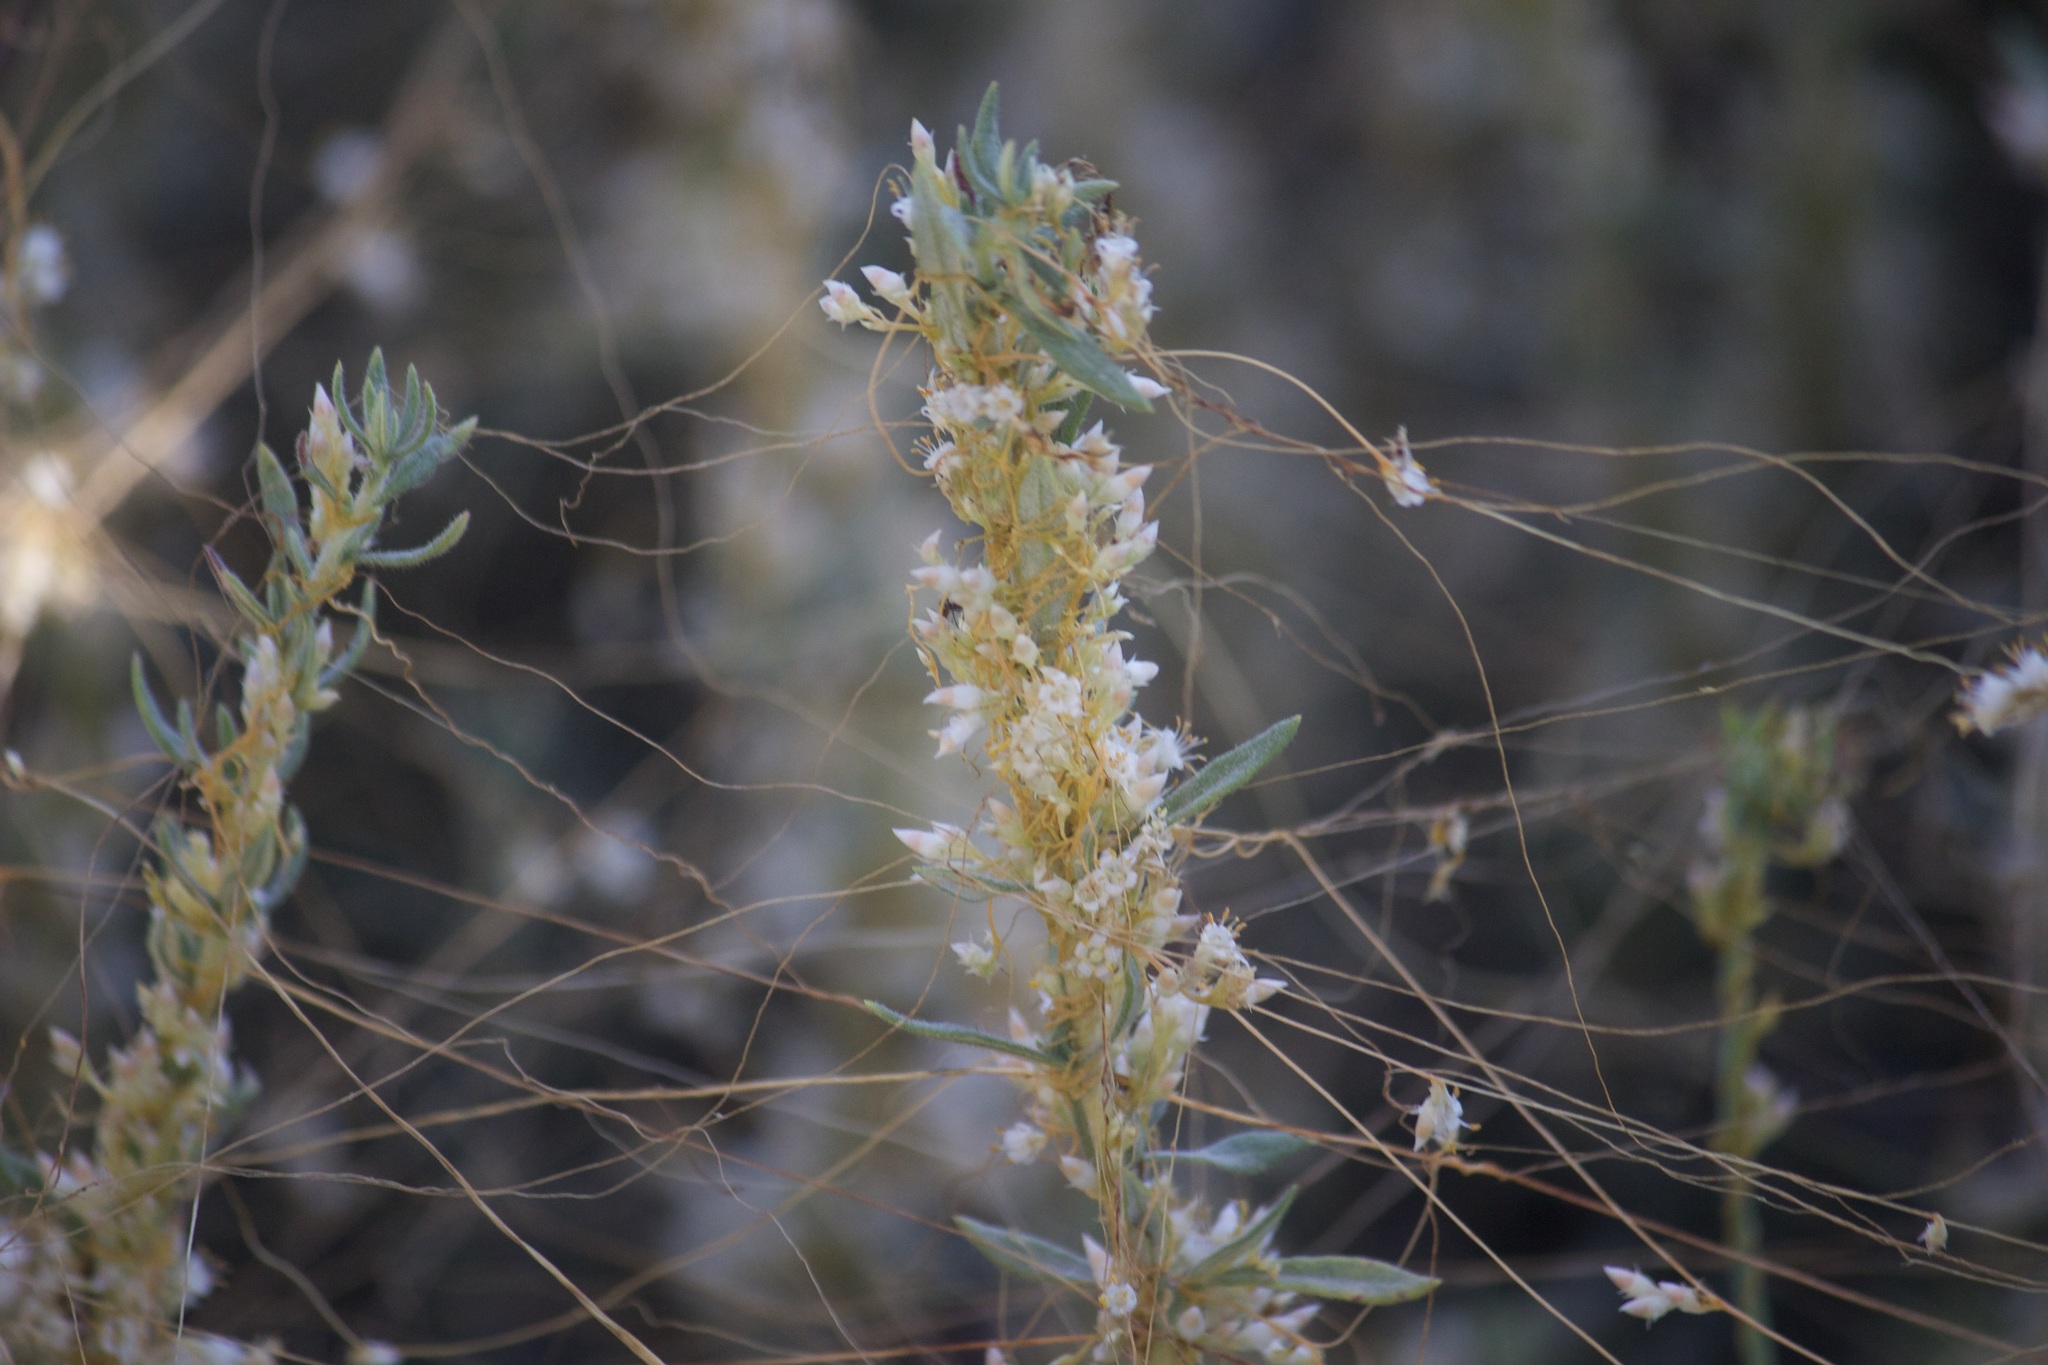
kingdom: Plantae
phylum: Tracheophyta
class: Magnoliopsida
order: Solanales
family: Convolvulaceae
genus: Cuscuta
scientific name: Cuscuta californica
